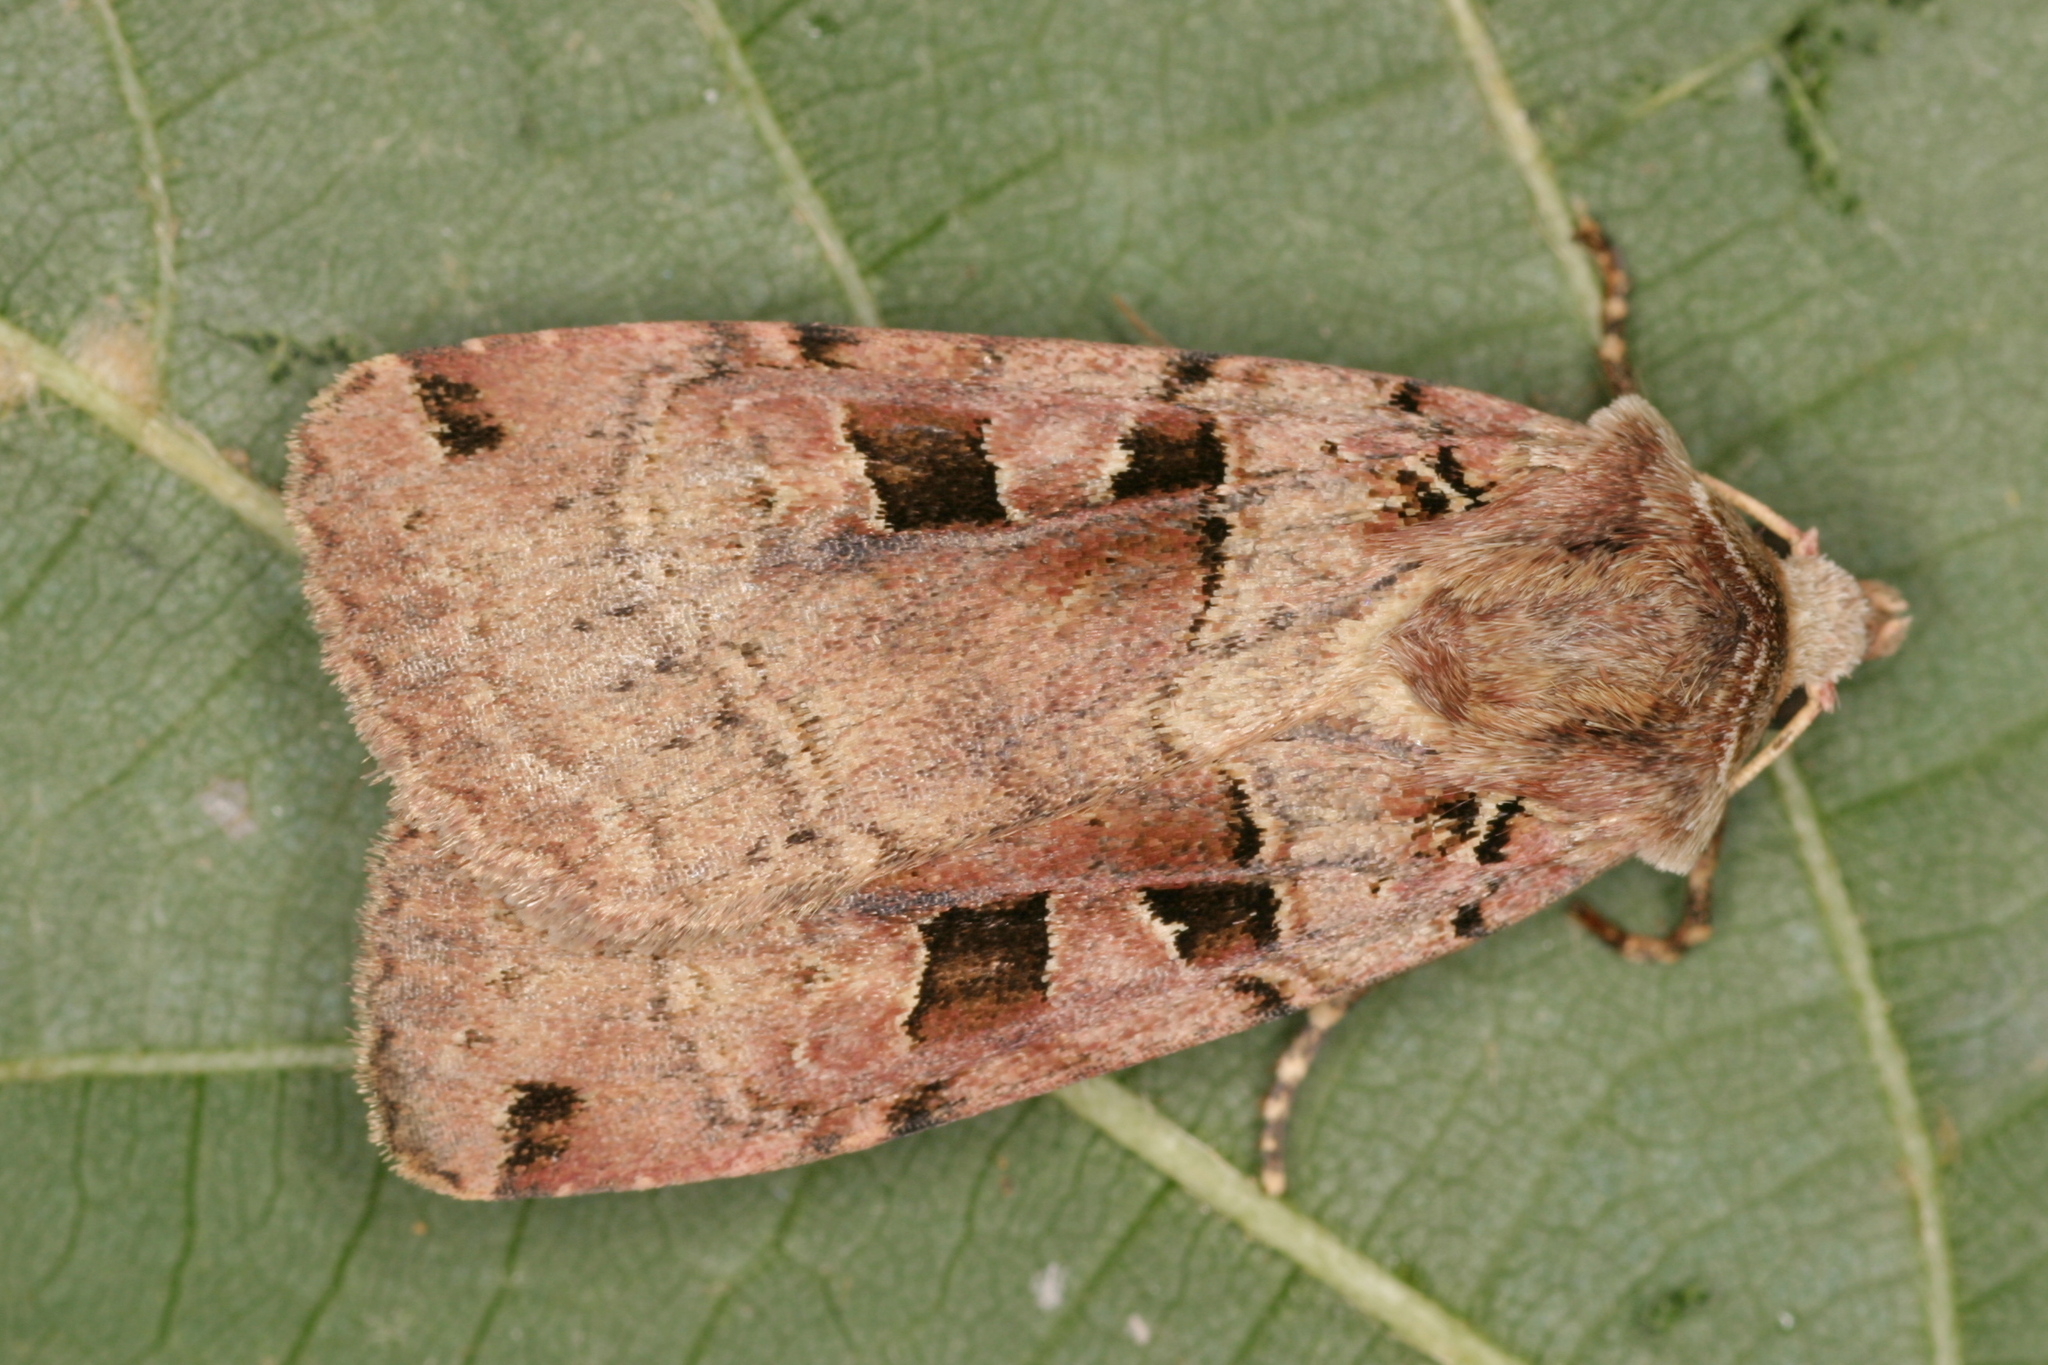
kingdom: Animalia
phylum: Arthropoda
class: Insecta
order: Lepidoptera
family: Noctuidae
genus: Xestia
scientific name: Xestia triangulum
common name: Double square-spot
